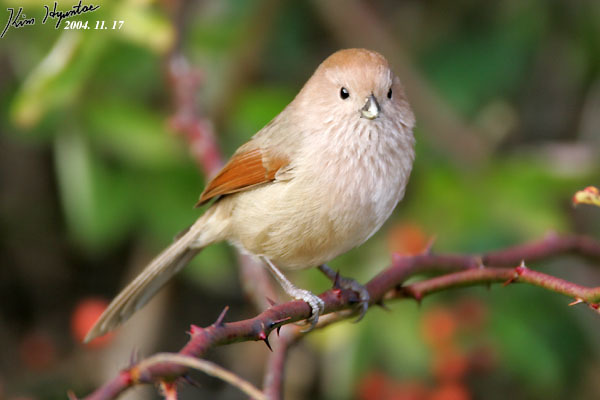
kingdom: Animalia
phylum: Chordata
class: Aves
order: Passeriformes
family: Sylviidae
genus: Sinosuthora
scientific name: Sinosuthora webbiana
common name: Vinous-throated parrotbill
